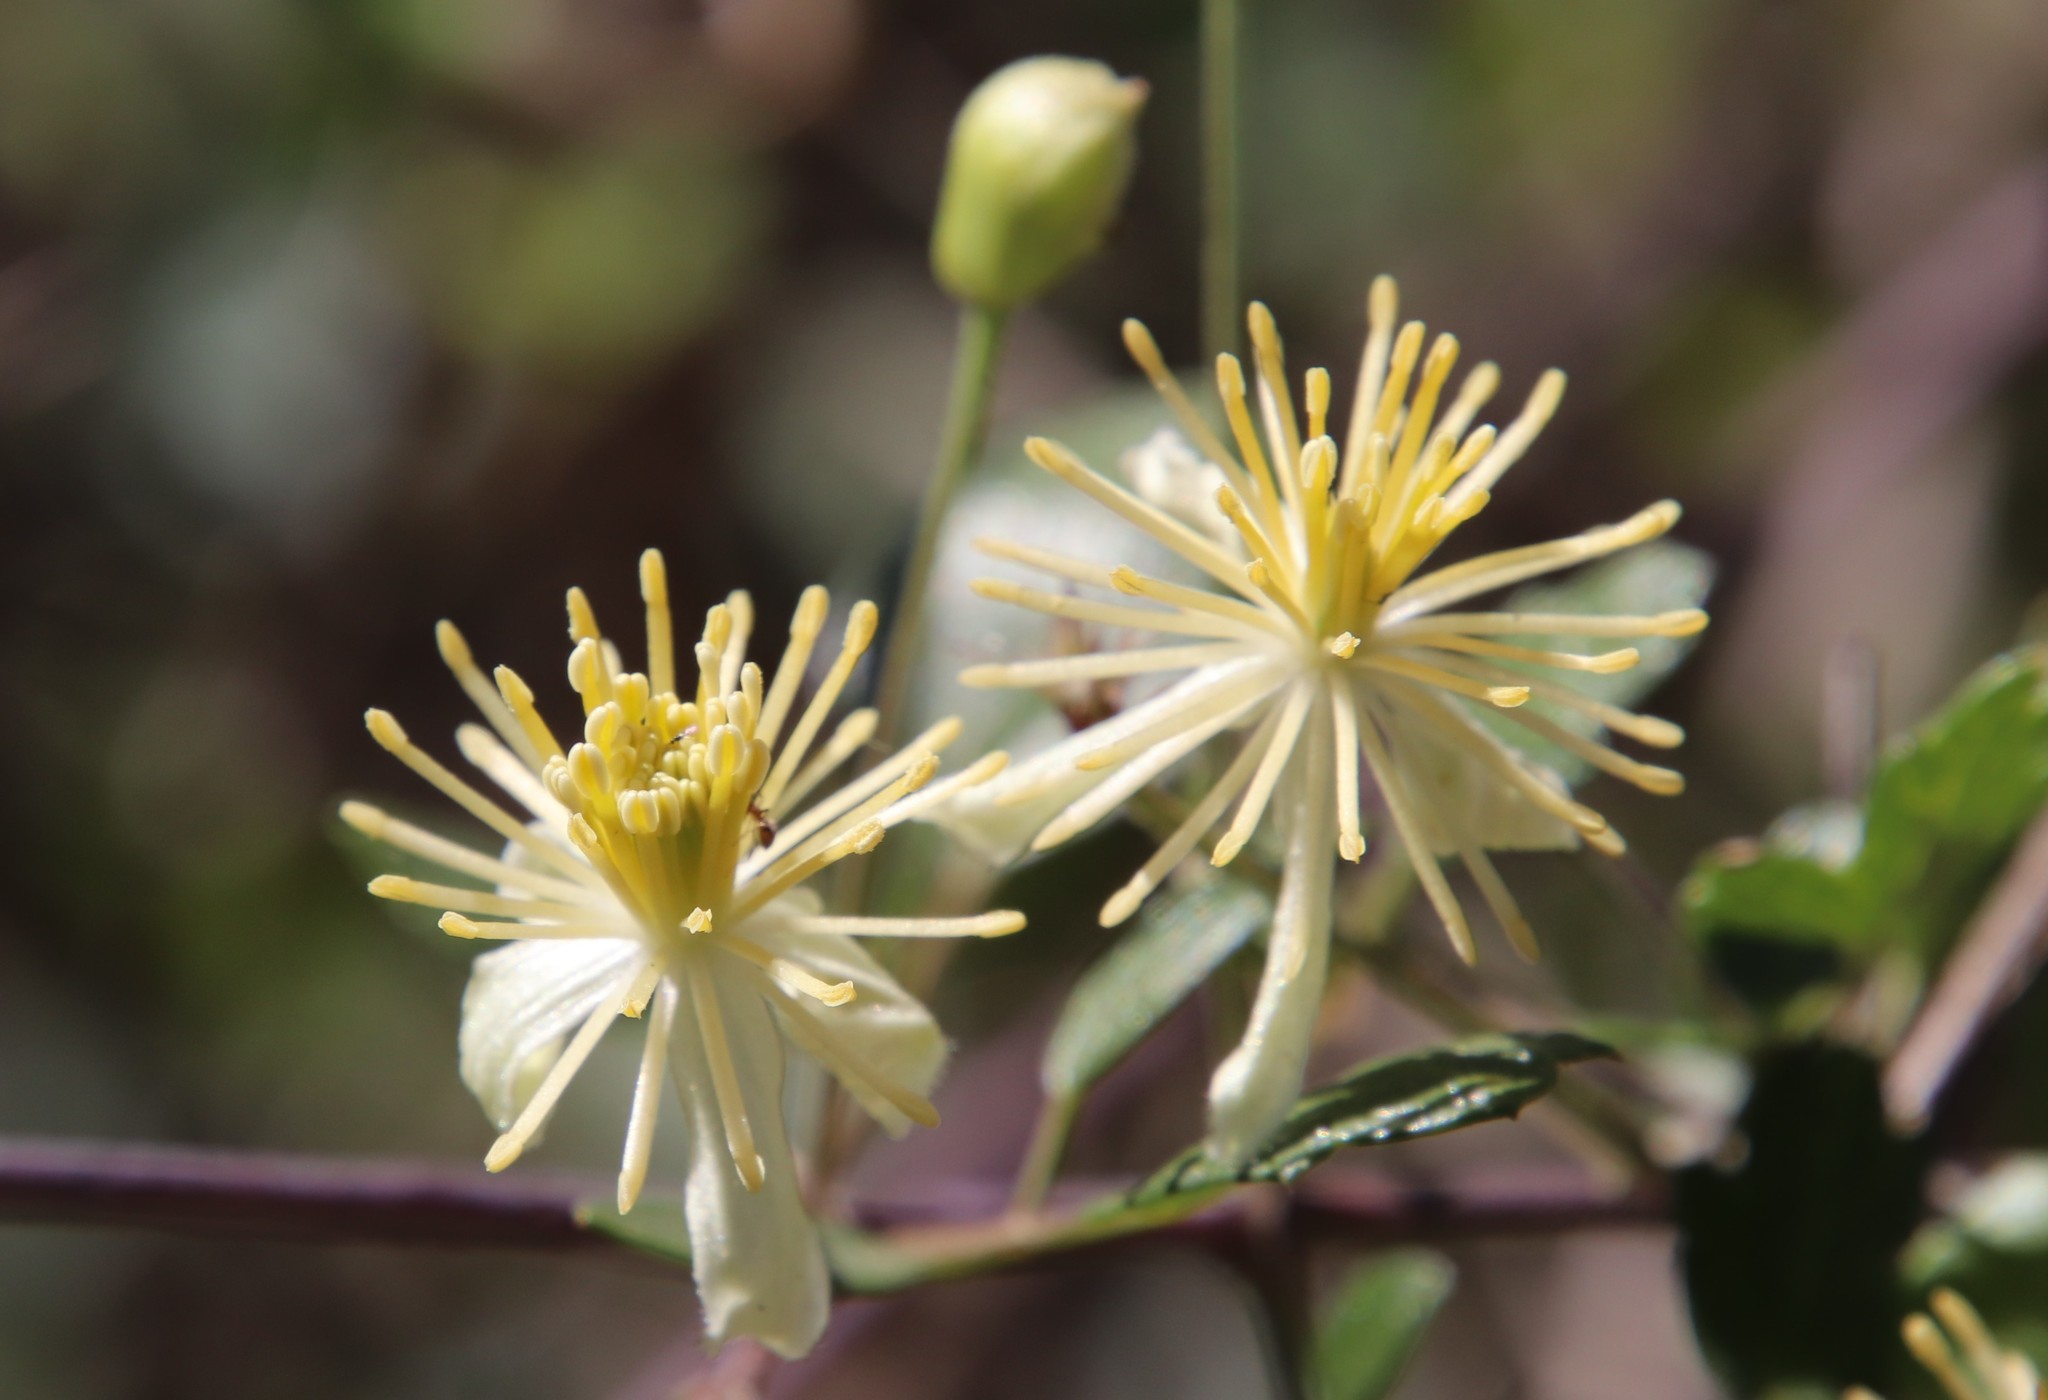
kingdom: Plantae
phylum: Tracheophyta
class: Magnoliopsida
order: Ranunculales
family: Ranunculaceae
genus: Clematis
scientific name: Clematis pauciflora
